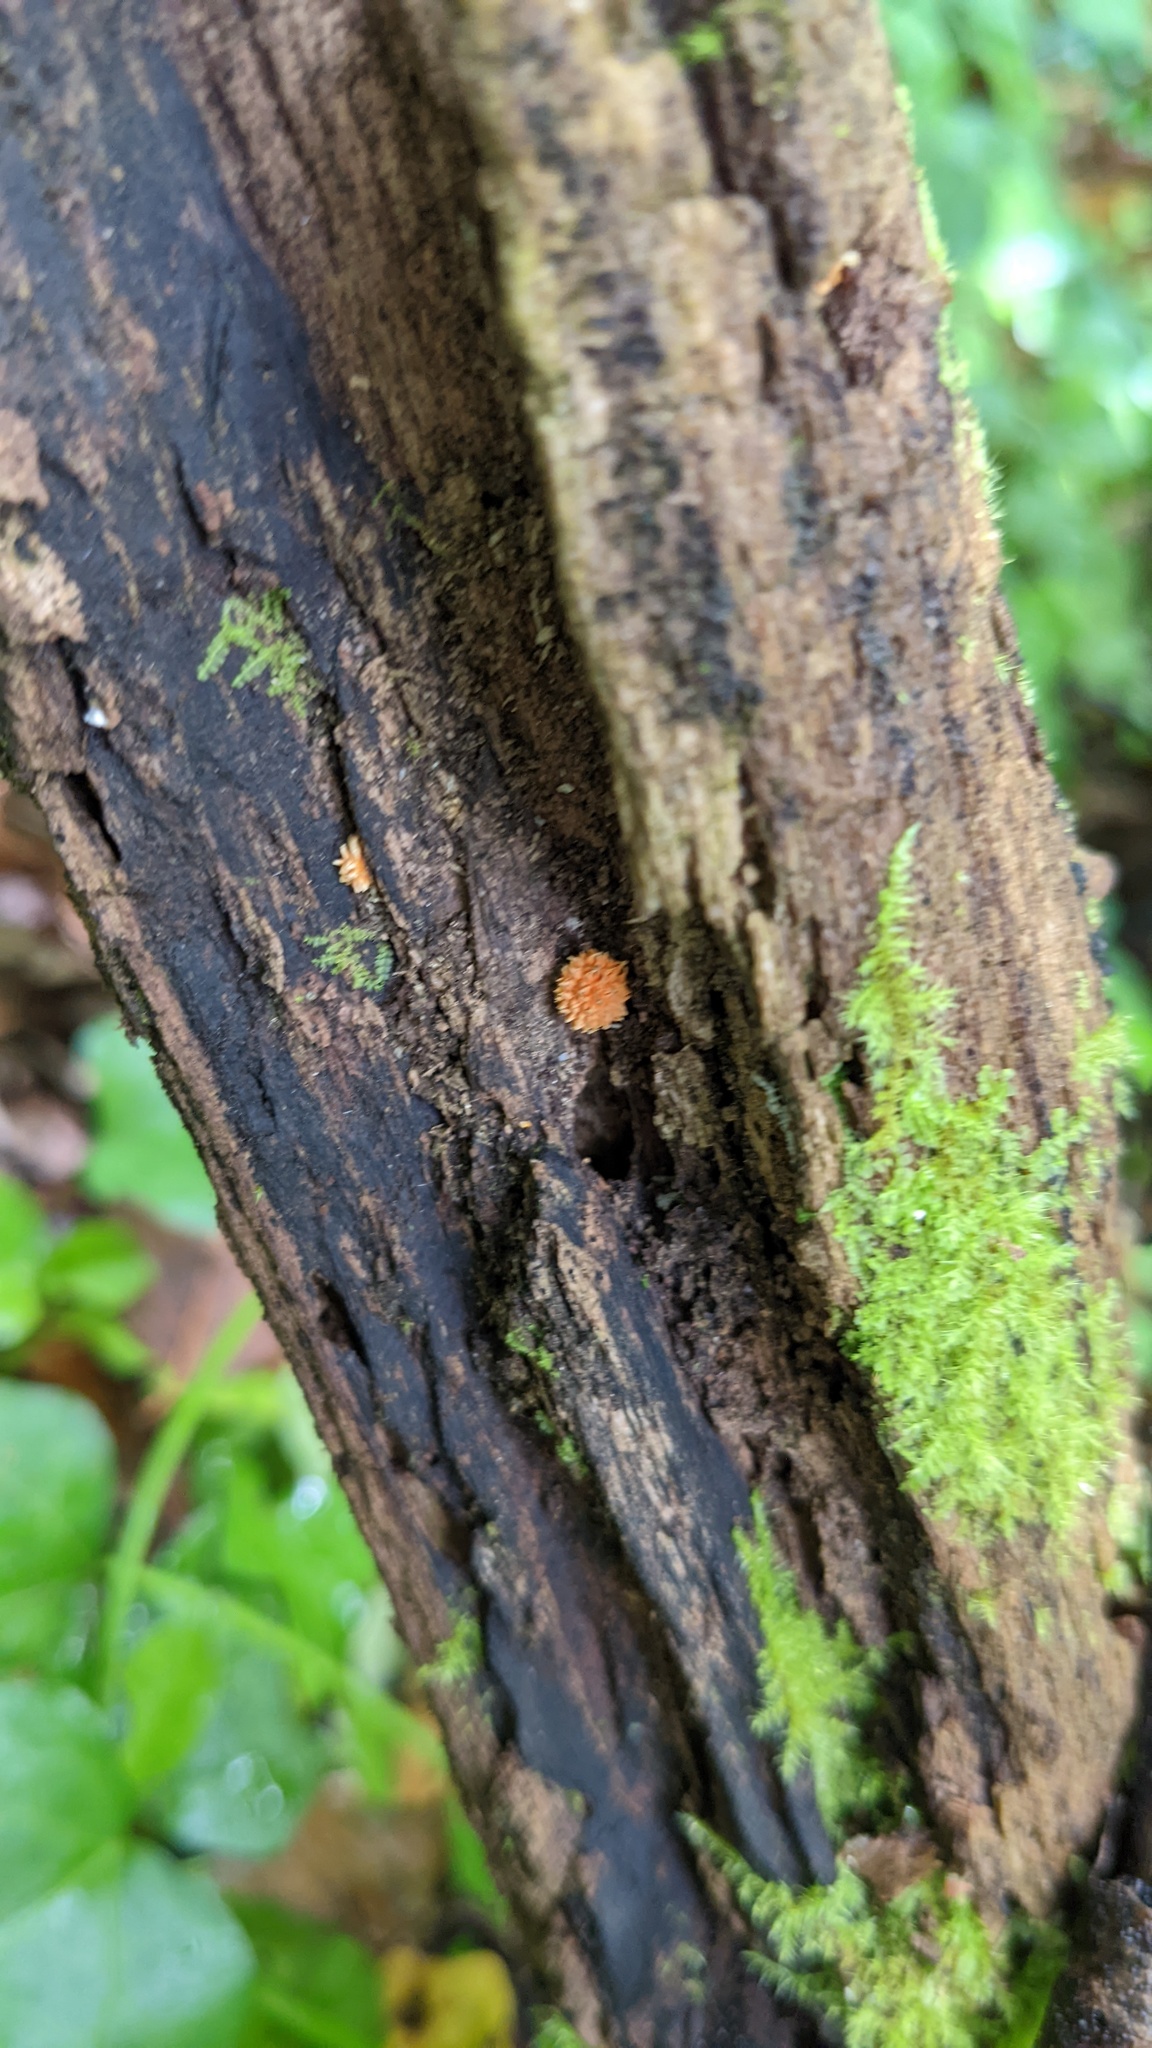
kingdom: Fungi
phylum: Basidiomycota
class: Agaricomycetes
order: Agaricales
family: Physalacriaceae
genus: Cyptotrama
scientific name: Cyptotrama asprata
